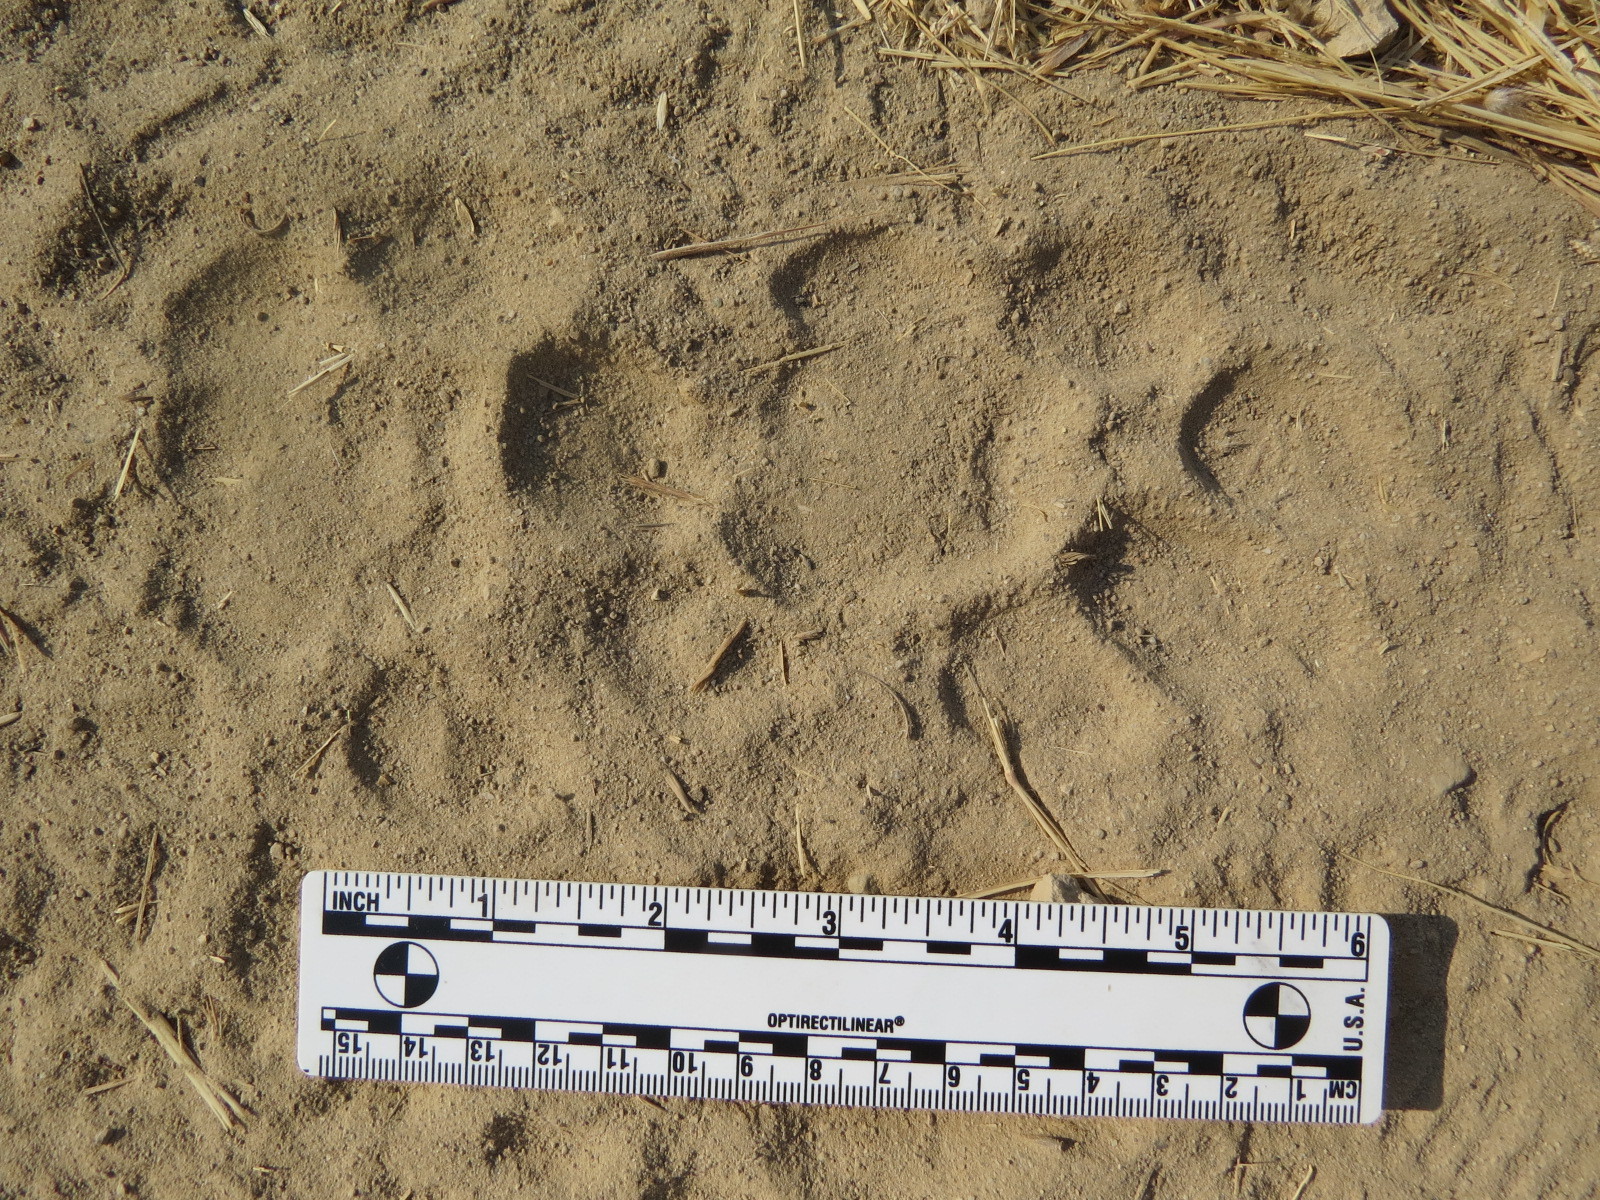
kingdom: Animalia
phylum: Chordata
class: Mammalia
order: Carnivora
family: Felidae
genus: Puma
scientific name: Puma concolor
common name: Puma
